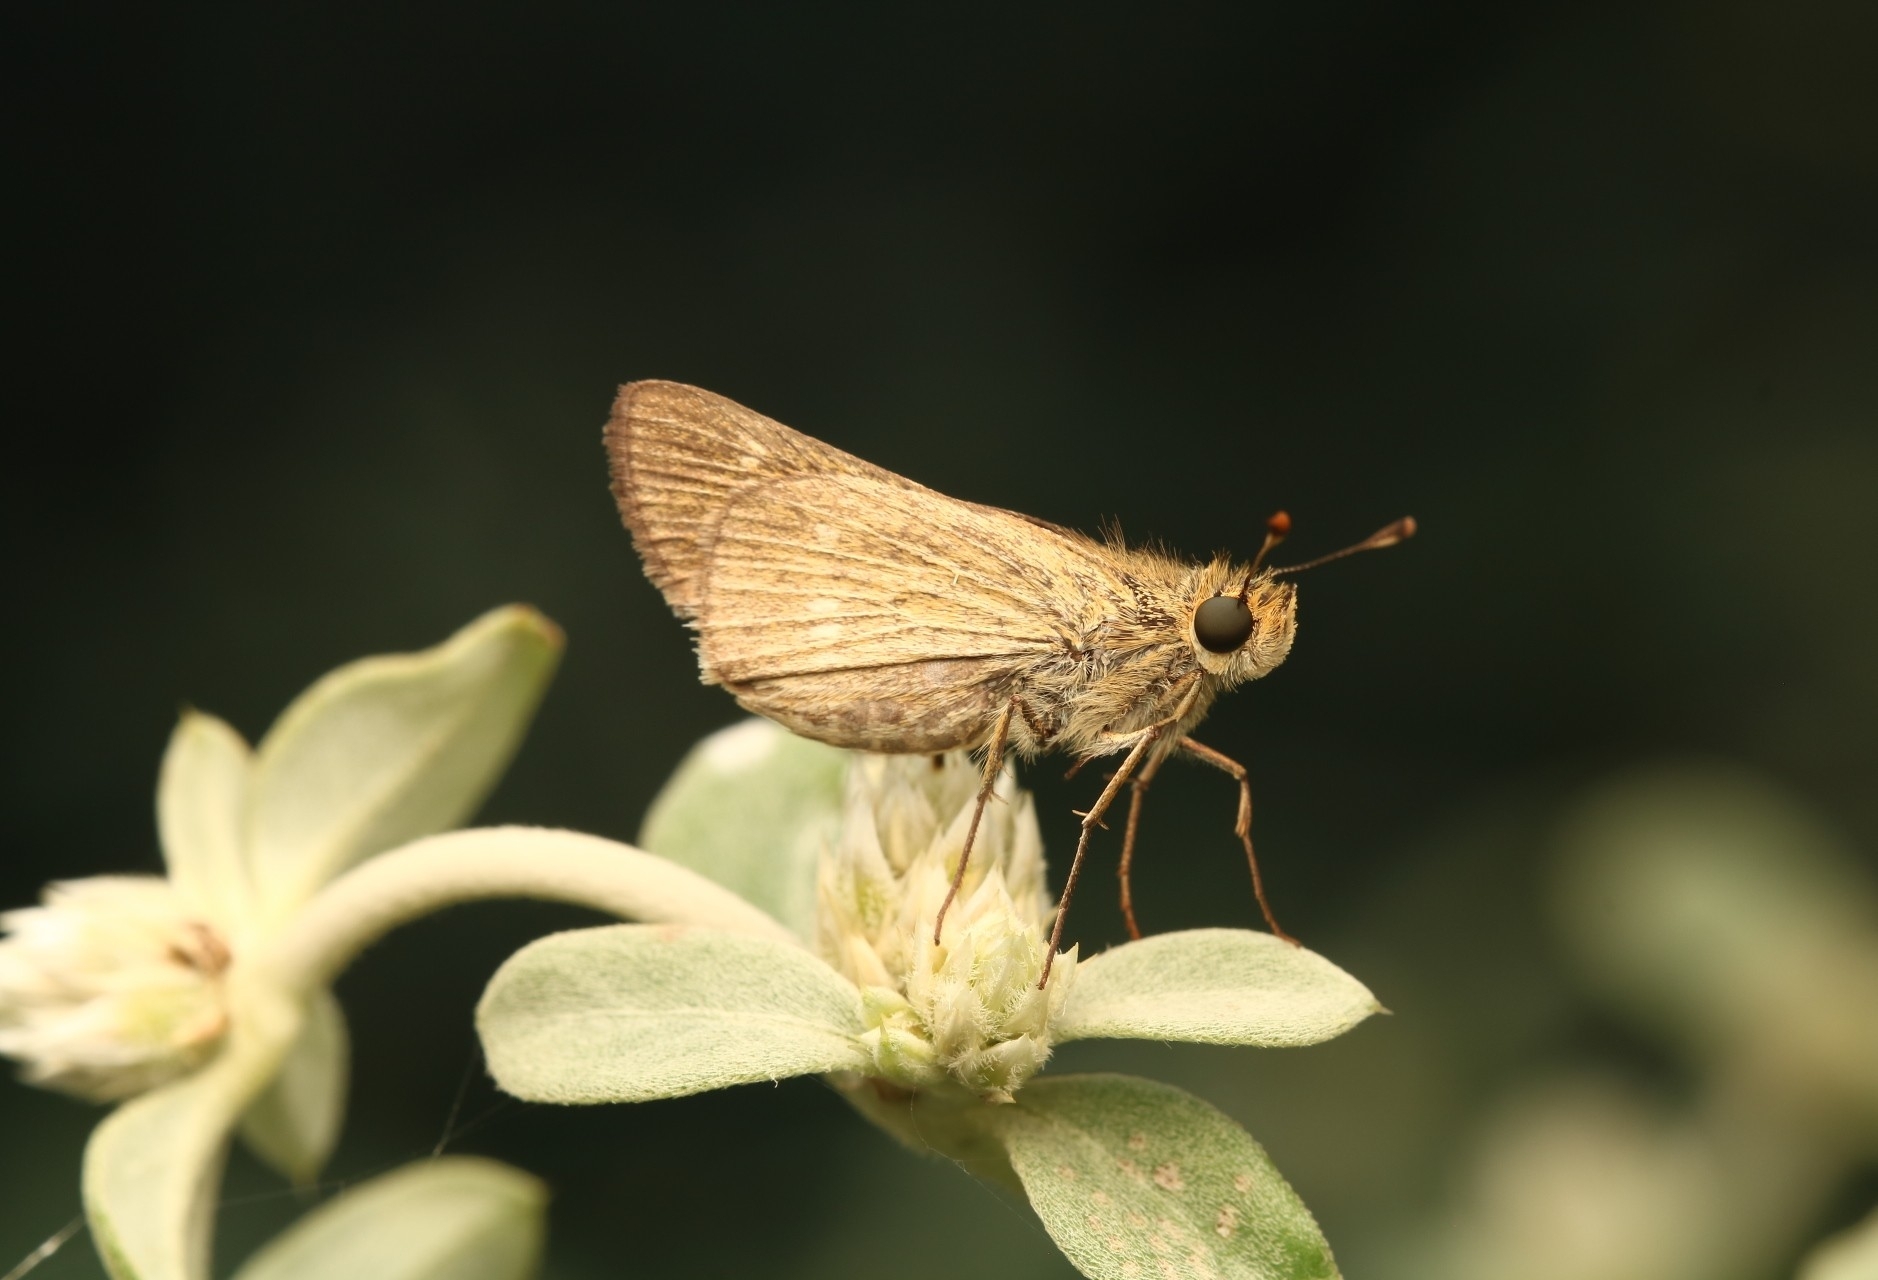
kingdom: Animalia
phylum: Arthropoda
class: Insecta
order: Lepidoptera
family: Hesperiidae
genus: Panoquina
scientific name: Panoquina panoquinoides
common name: Beach skipper
